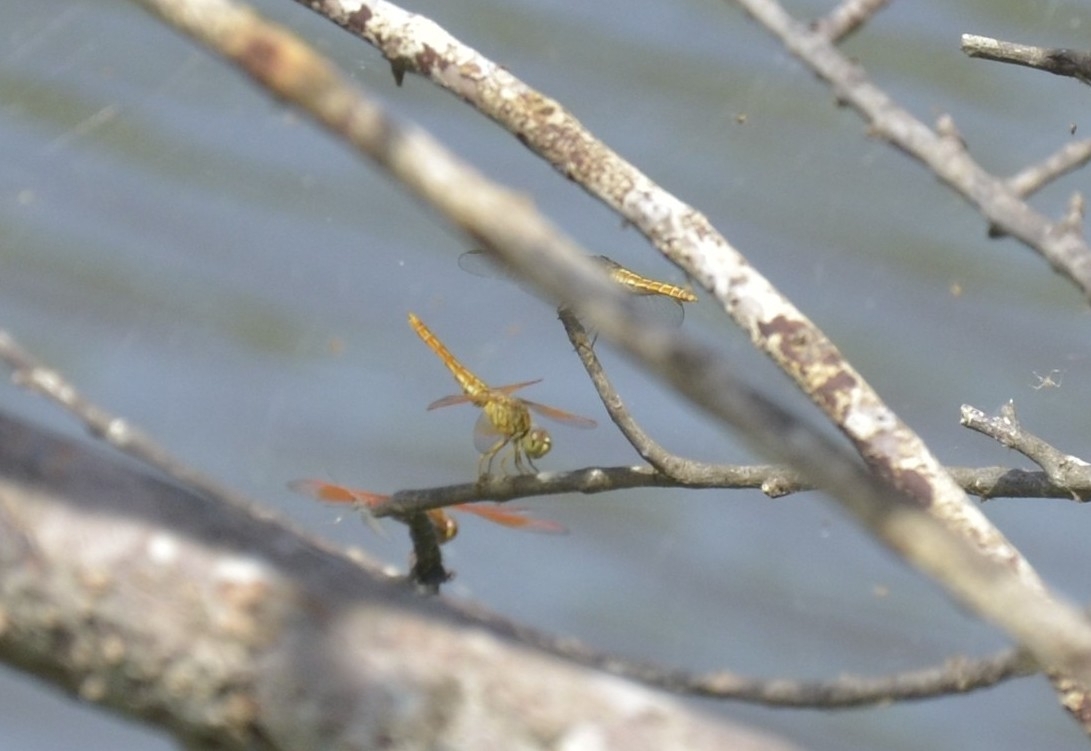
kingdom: Animalia
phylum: Arthropoda
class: Insecta
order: Odonata
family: Libellulidae
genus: Brachythemis
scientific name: Brachythemis contaminata
